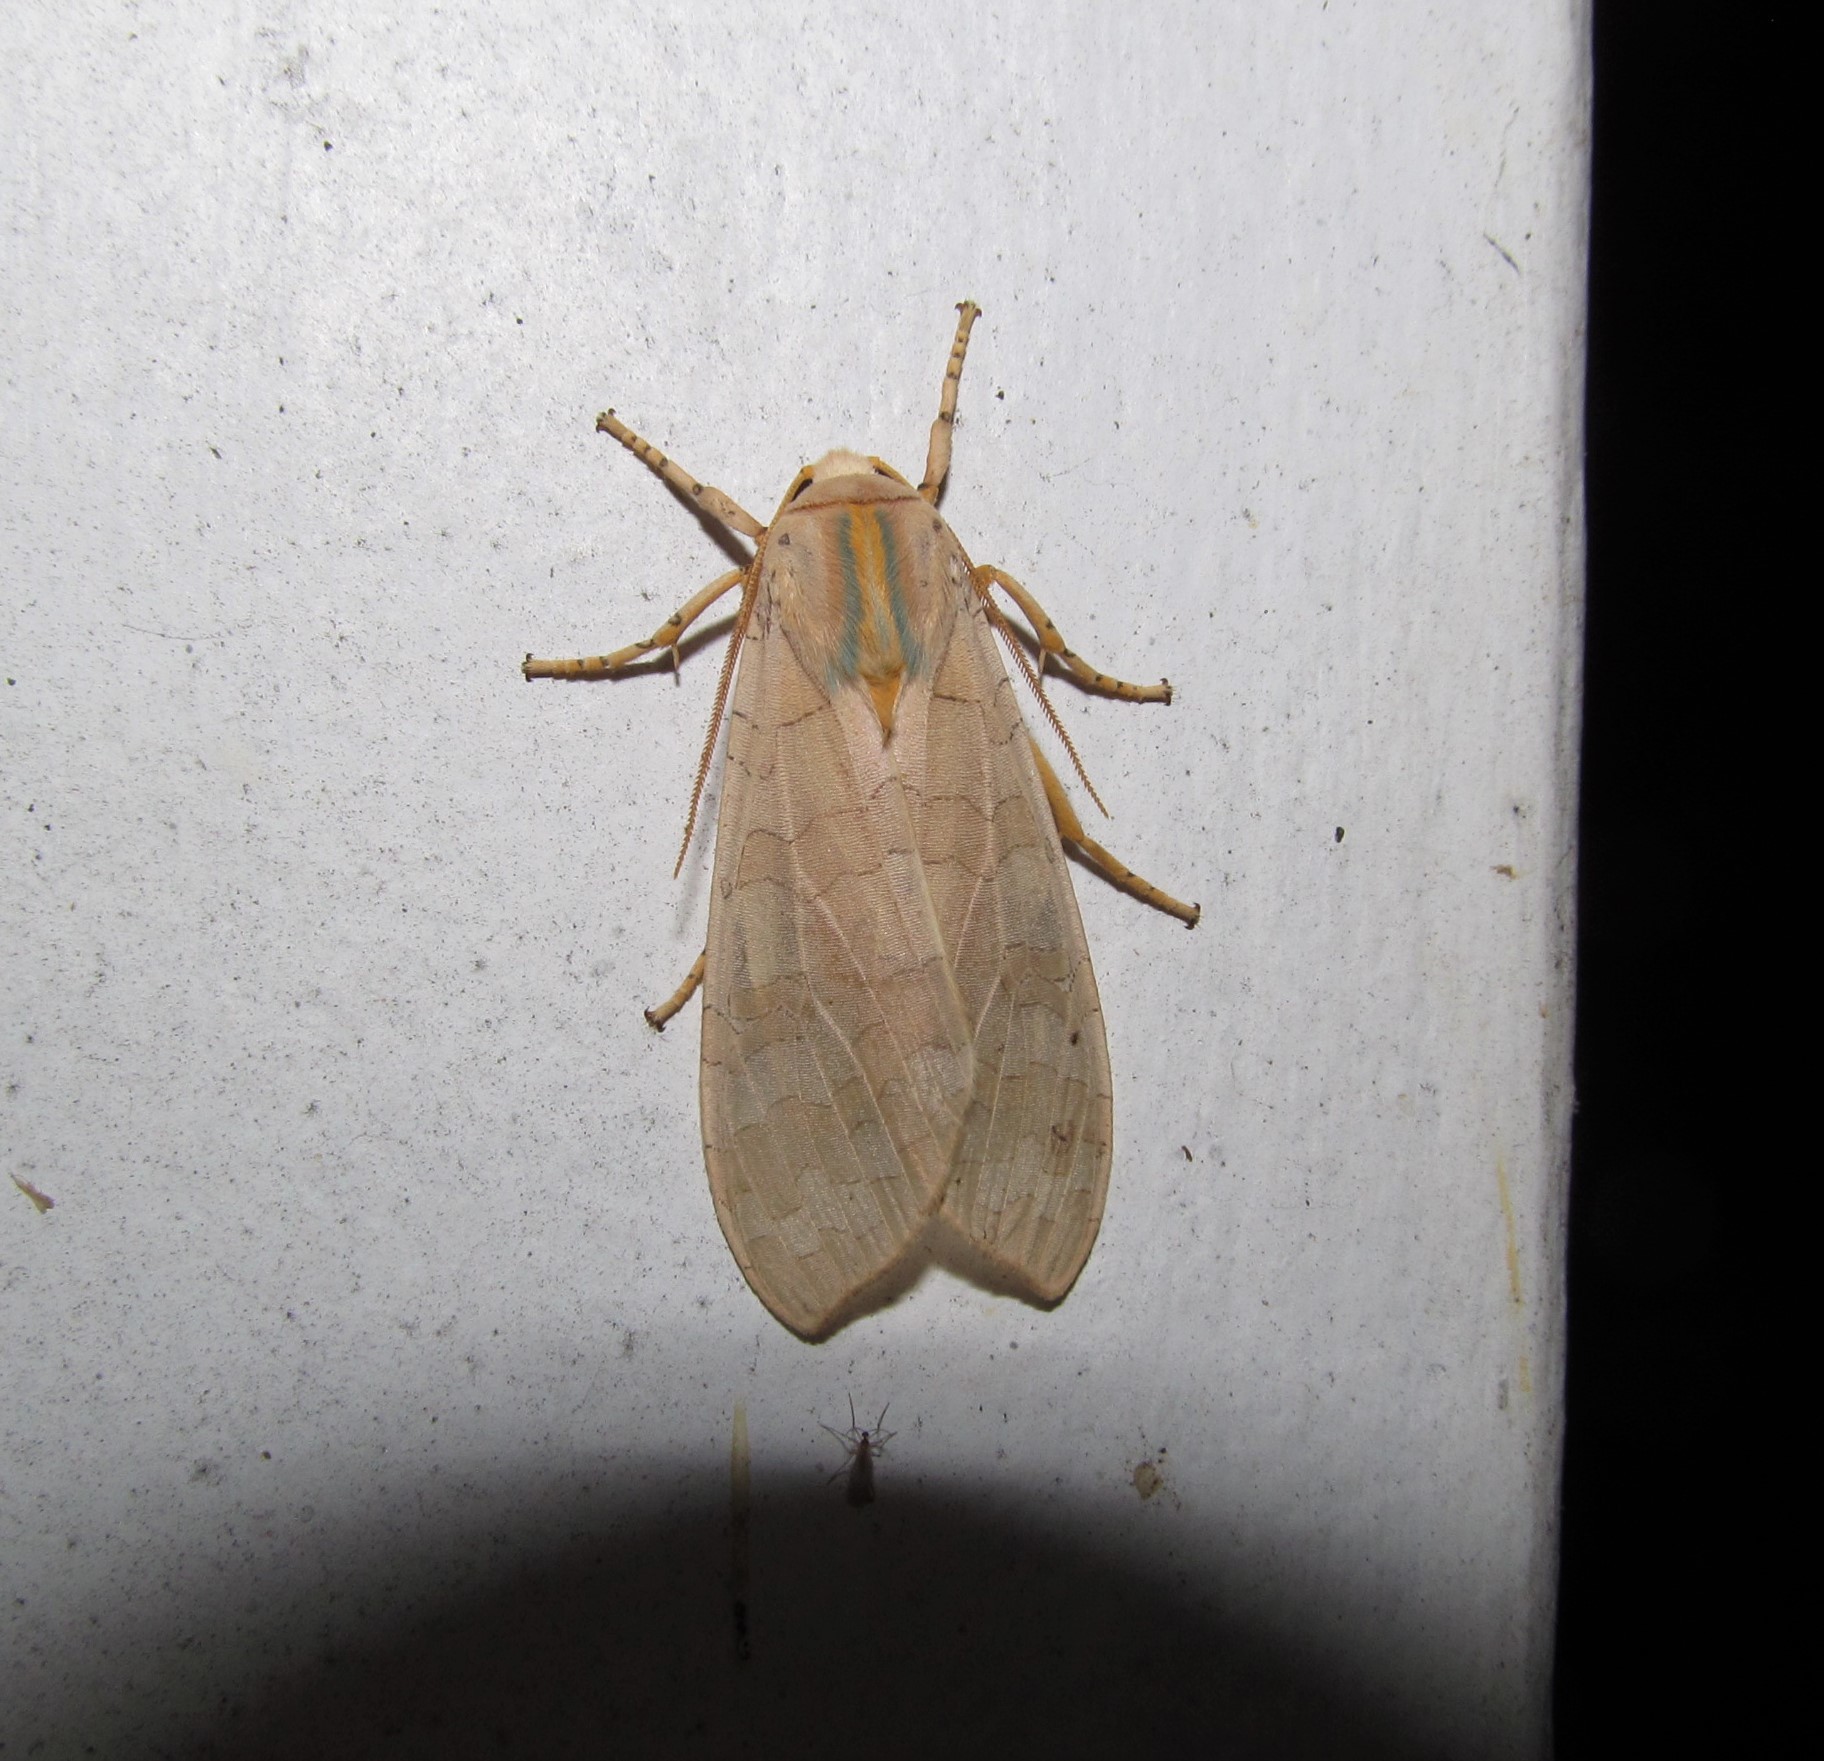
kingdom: Animalia
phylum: Arthropoda
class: Insecta
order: Lepidoptera
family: Erebidae
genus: Halysidota
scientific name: Halysidota
